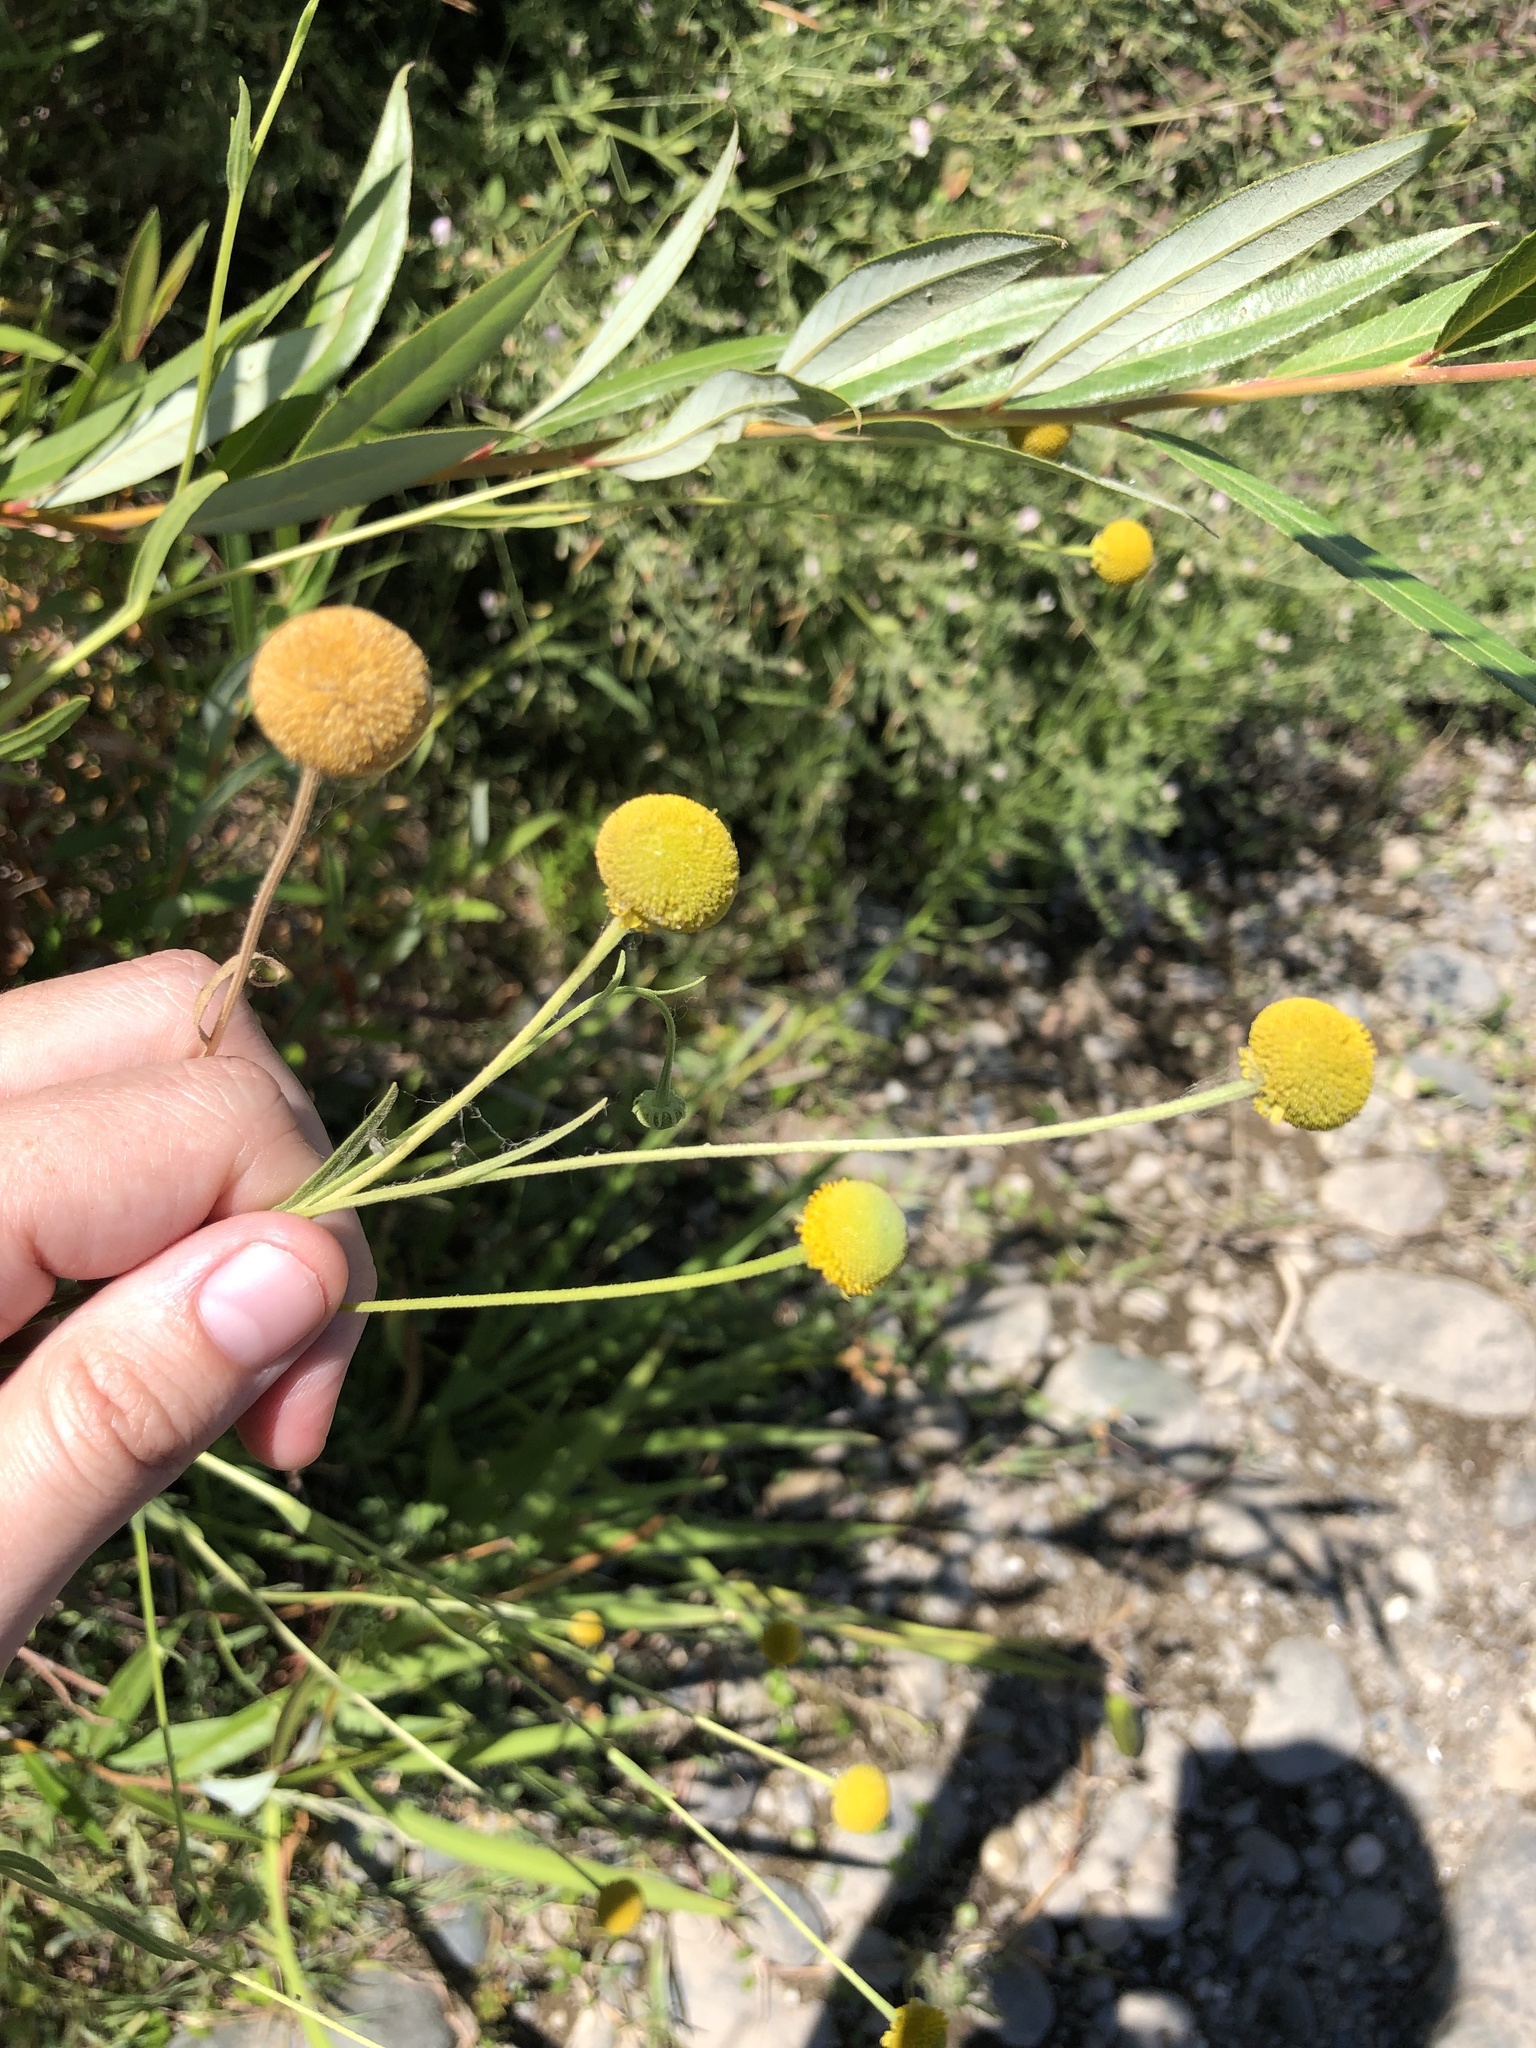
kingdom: Plantae
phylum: Tracheophyta
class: Magnoliopsida
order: Asterales
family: Asteraceae
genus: Helenium
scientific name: Helenium puberulum
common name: Sneezewort
